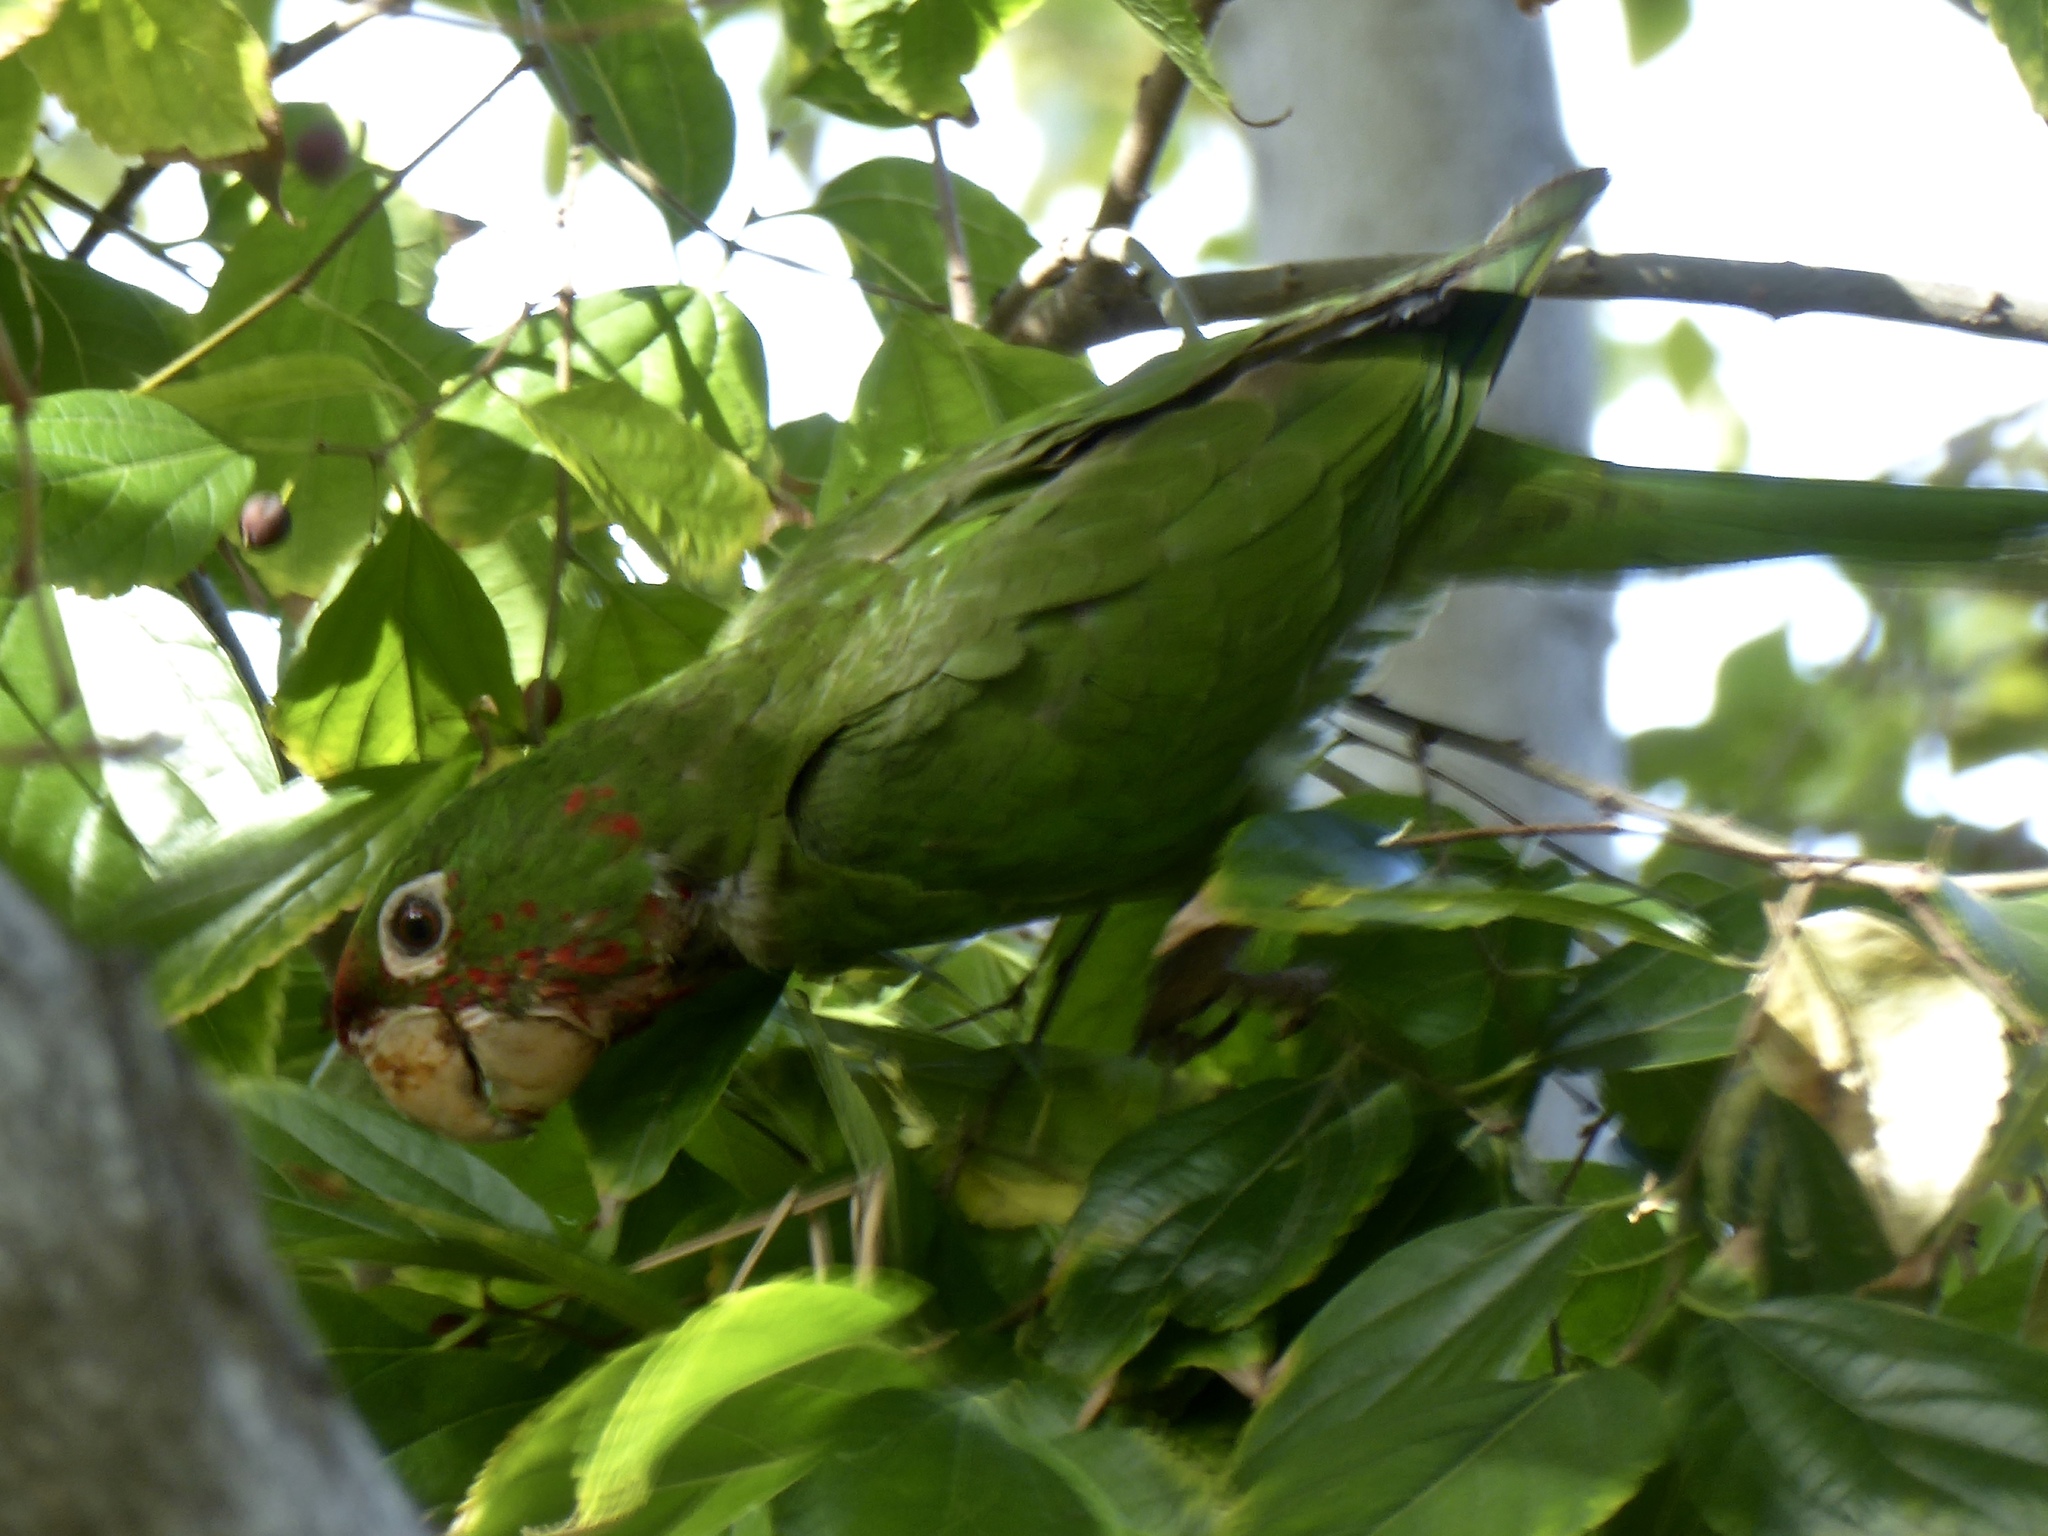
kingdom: Animalia
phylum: Chordata
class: Aves
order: Psittaciformes
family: Psittacidae
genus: Aratinga
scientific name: Aratinga mitrata
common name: Mitred parakeet
